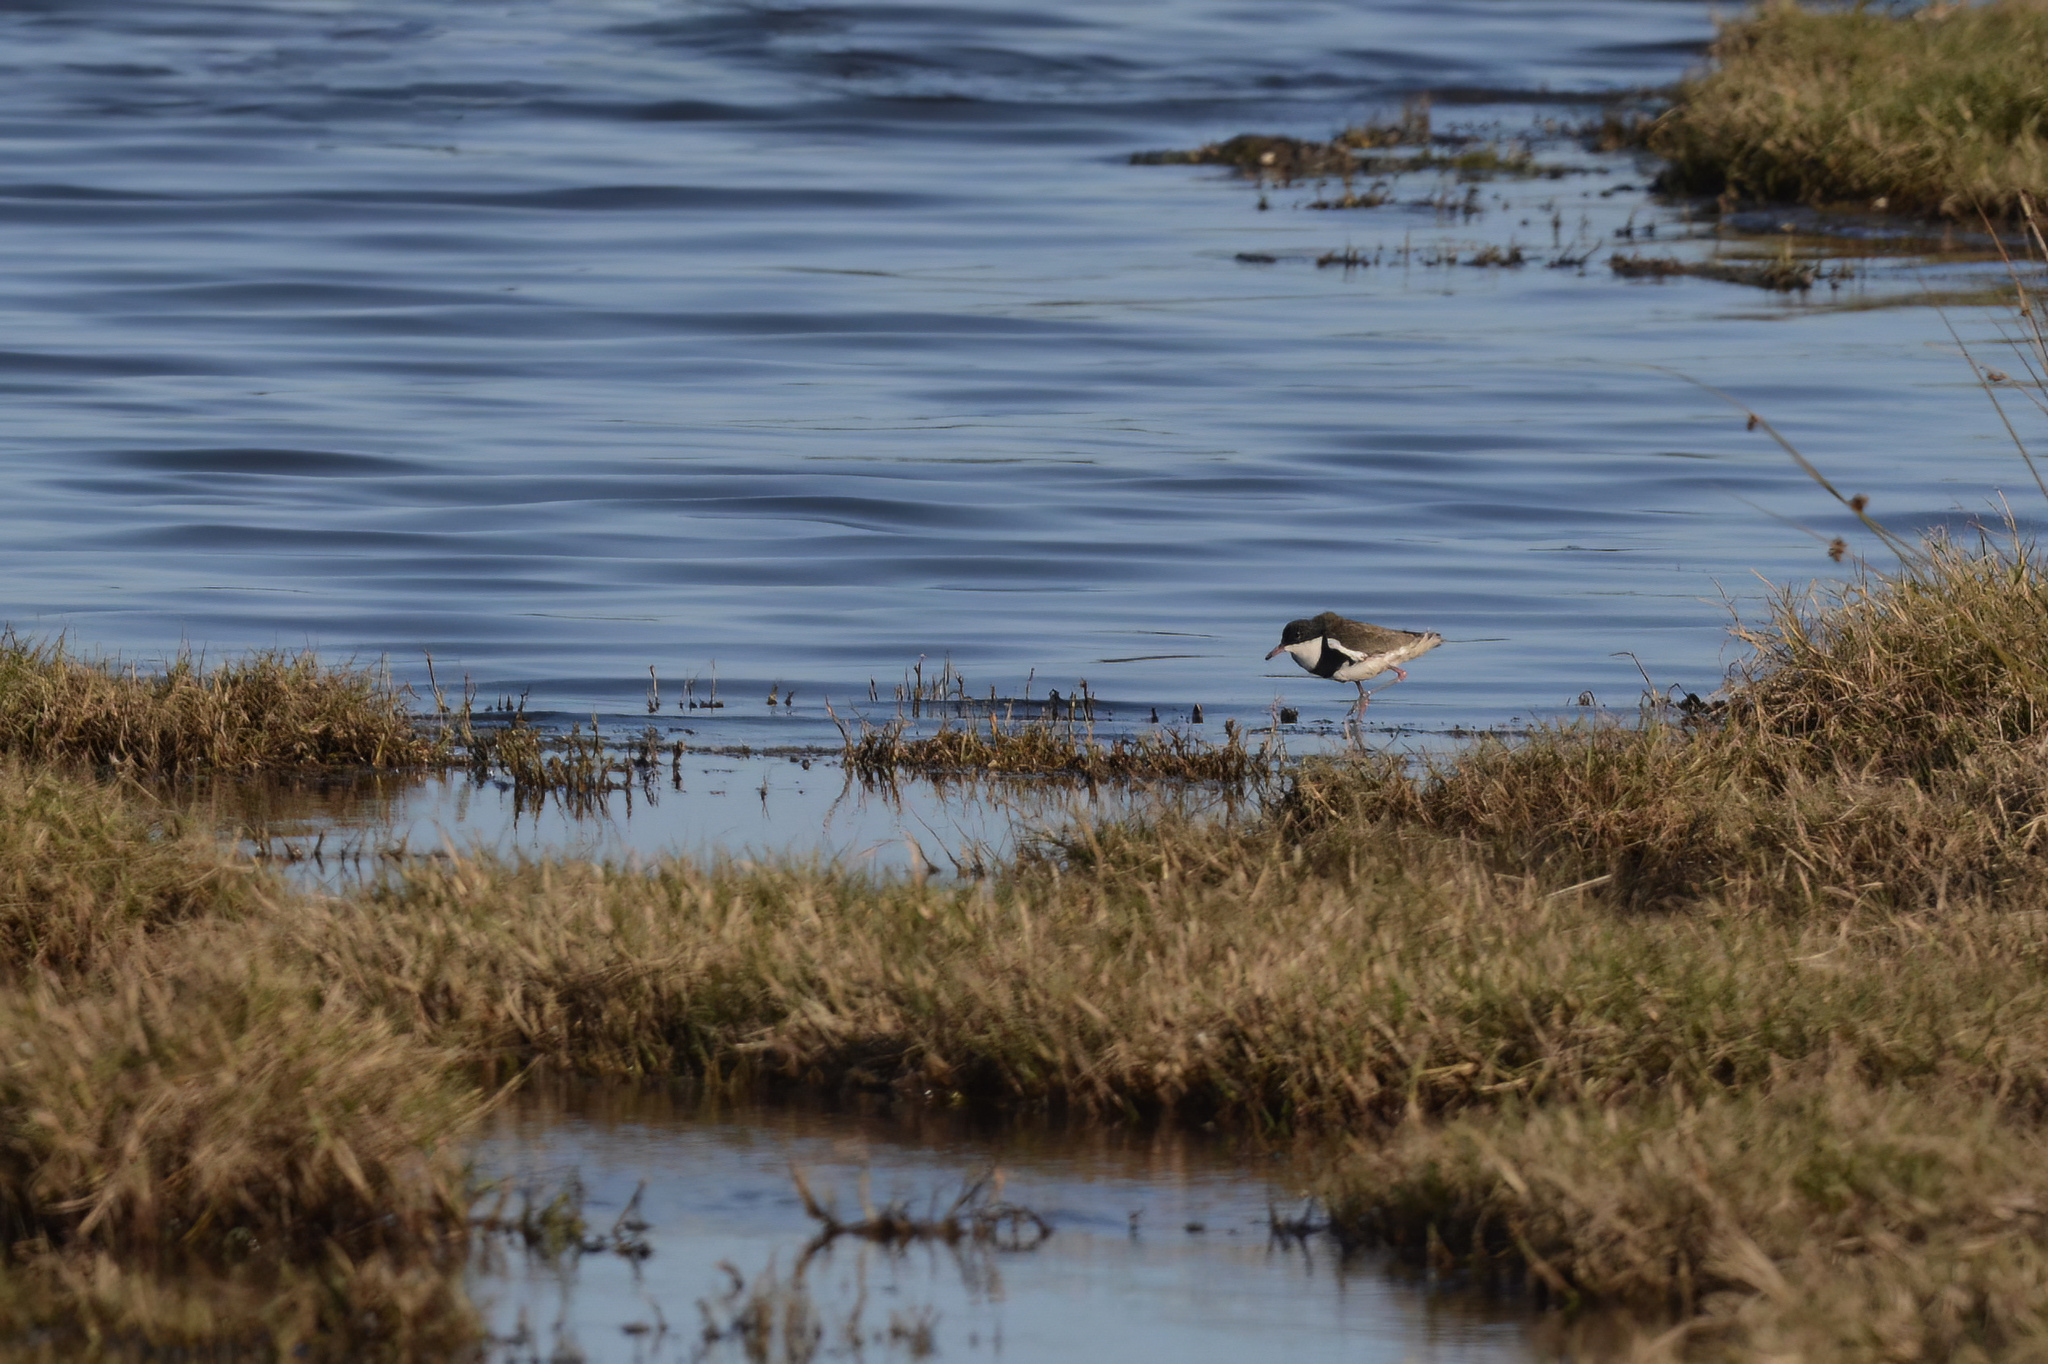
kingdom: Animalia
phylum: Chordata
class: Aves
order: Charadriiformes
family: Charadriidae
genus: Erythrogonys
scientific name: Erythrogonys cinctus
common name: Red-kneed dotterel
